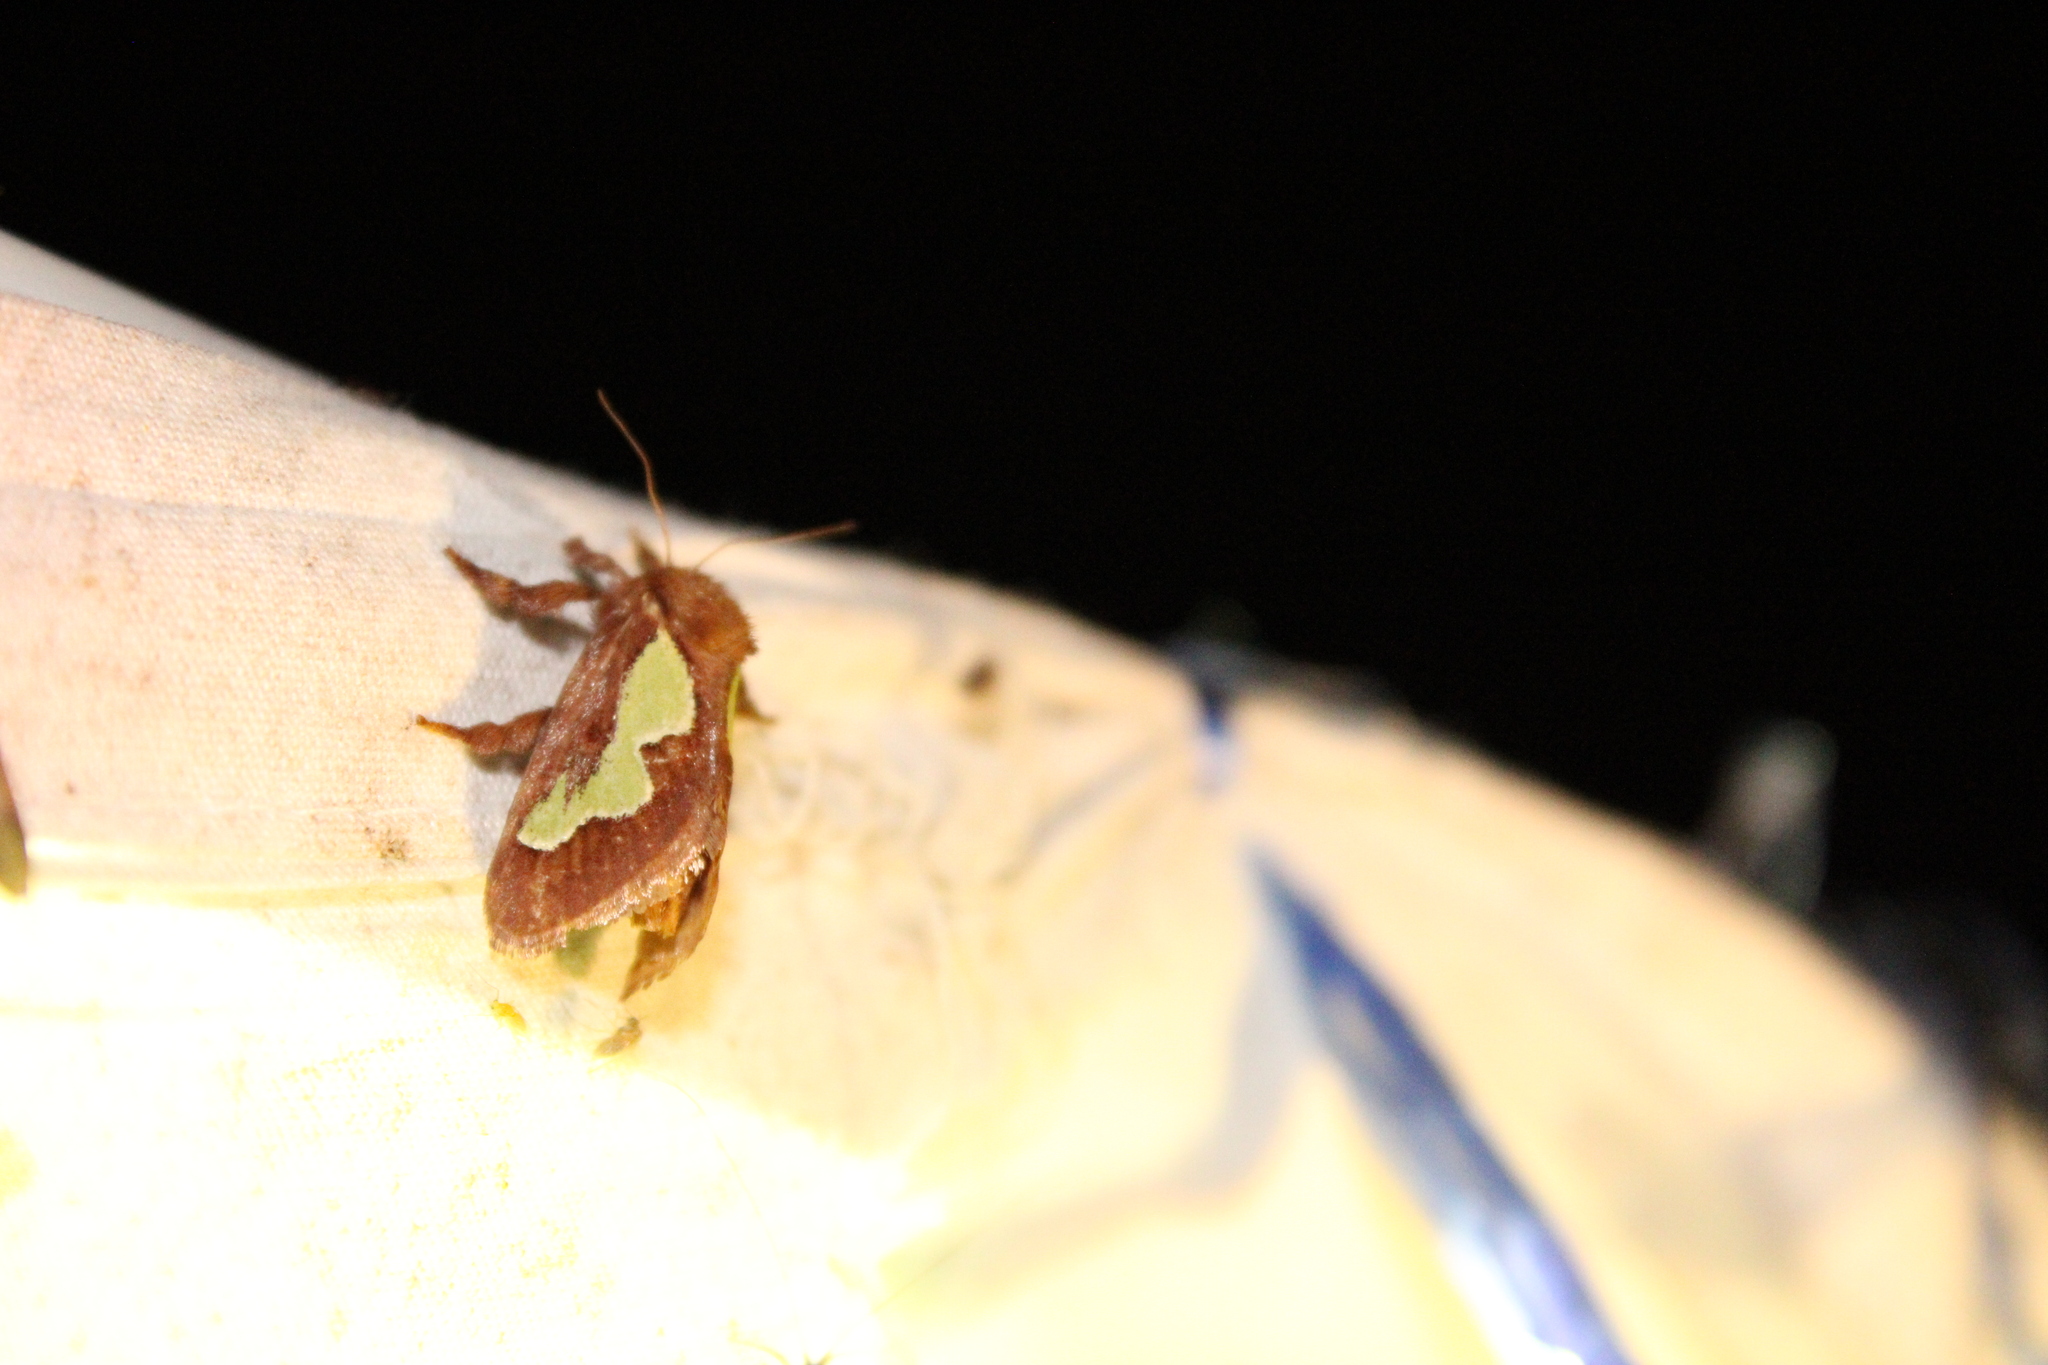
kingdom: Animalia
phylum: Arthropoda
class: Insecta
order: Lepidoptera
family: Limacodidae
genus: Euclea
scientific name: Euclea delphinii
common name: Spiny oak-slug moth
